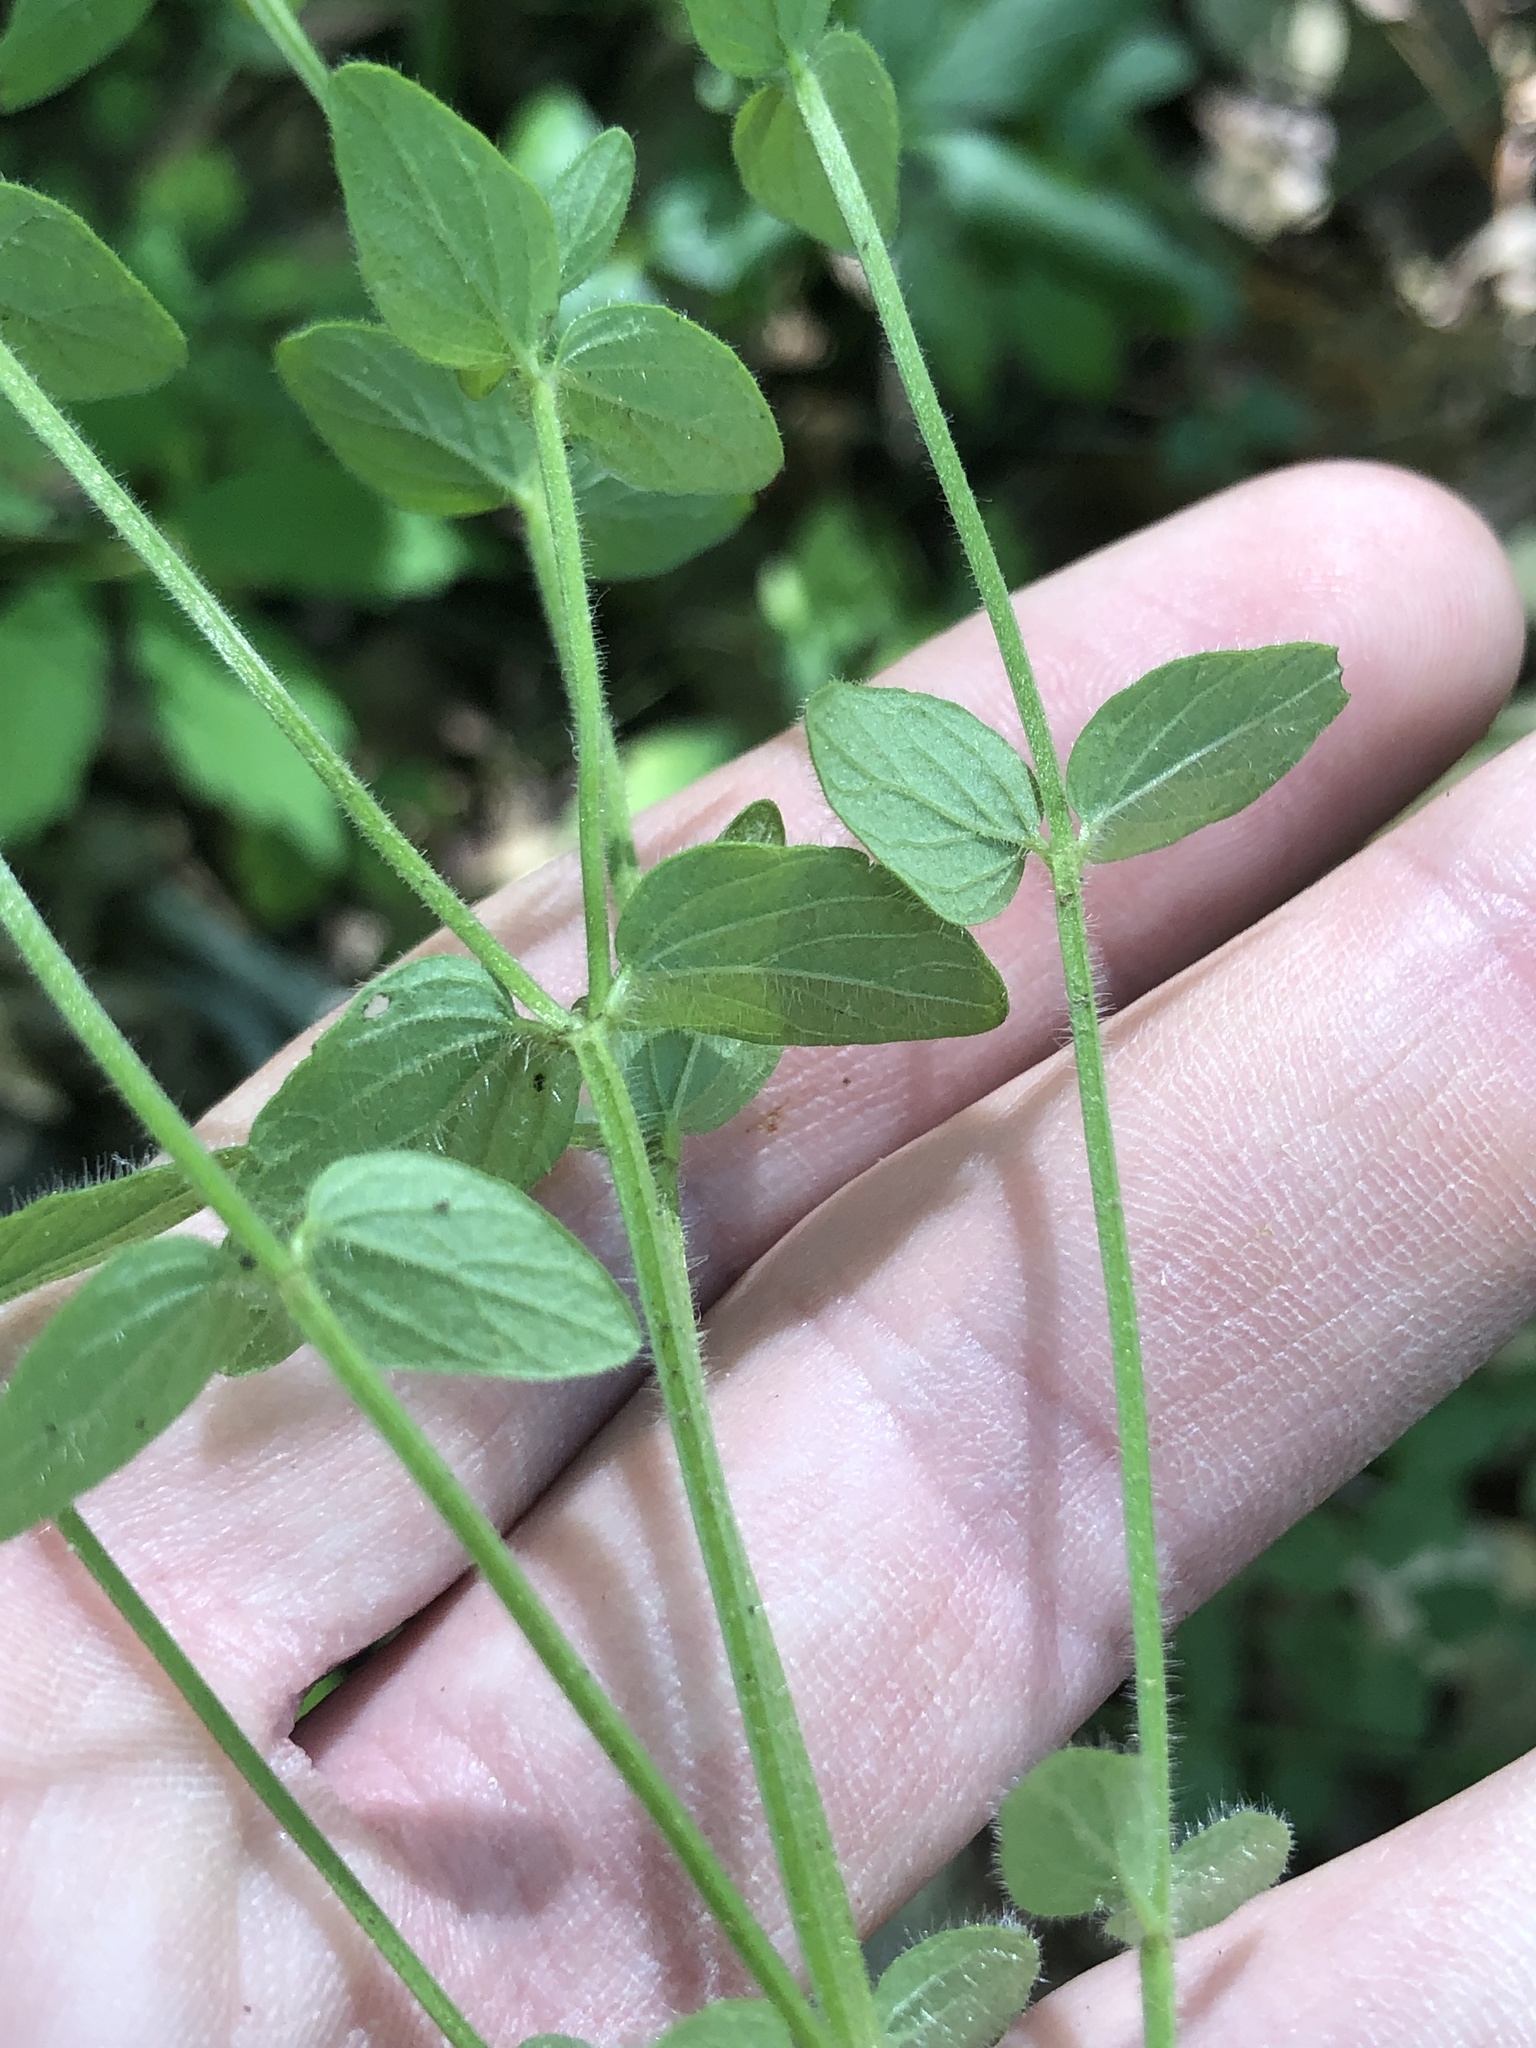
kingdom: Plantae
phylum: Tracheophyta
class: Magnoliopsida
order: Lamiales
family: Lamiaceae
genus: Scutellaria
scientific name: Scutellaria parvula
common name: Little scullcap
